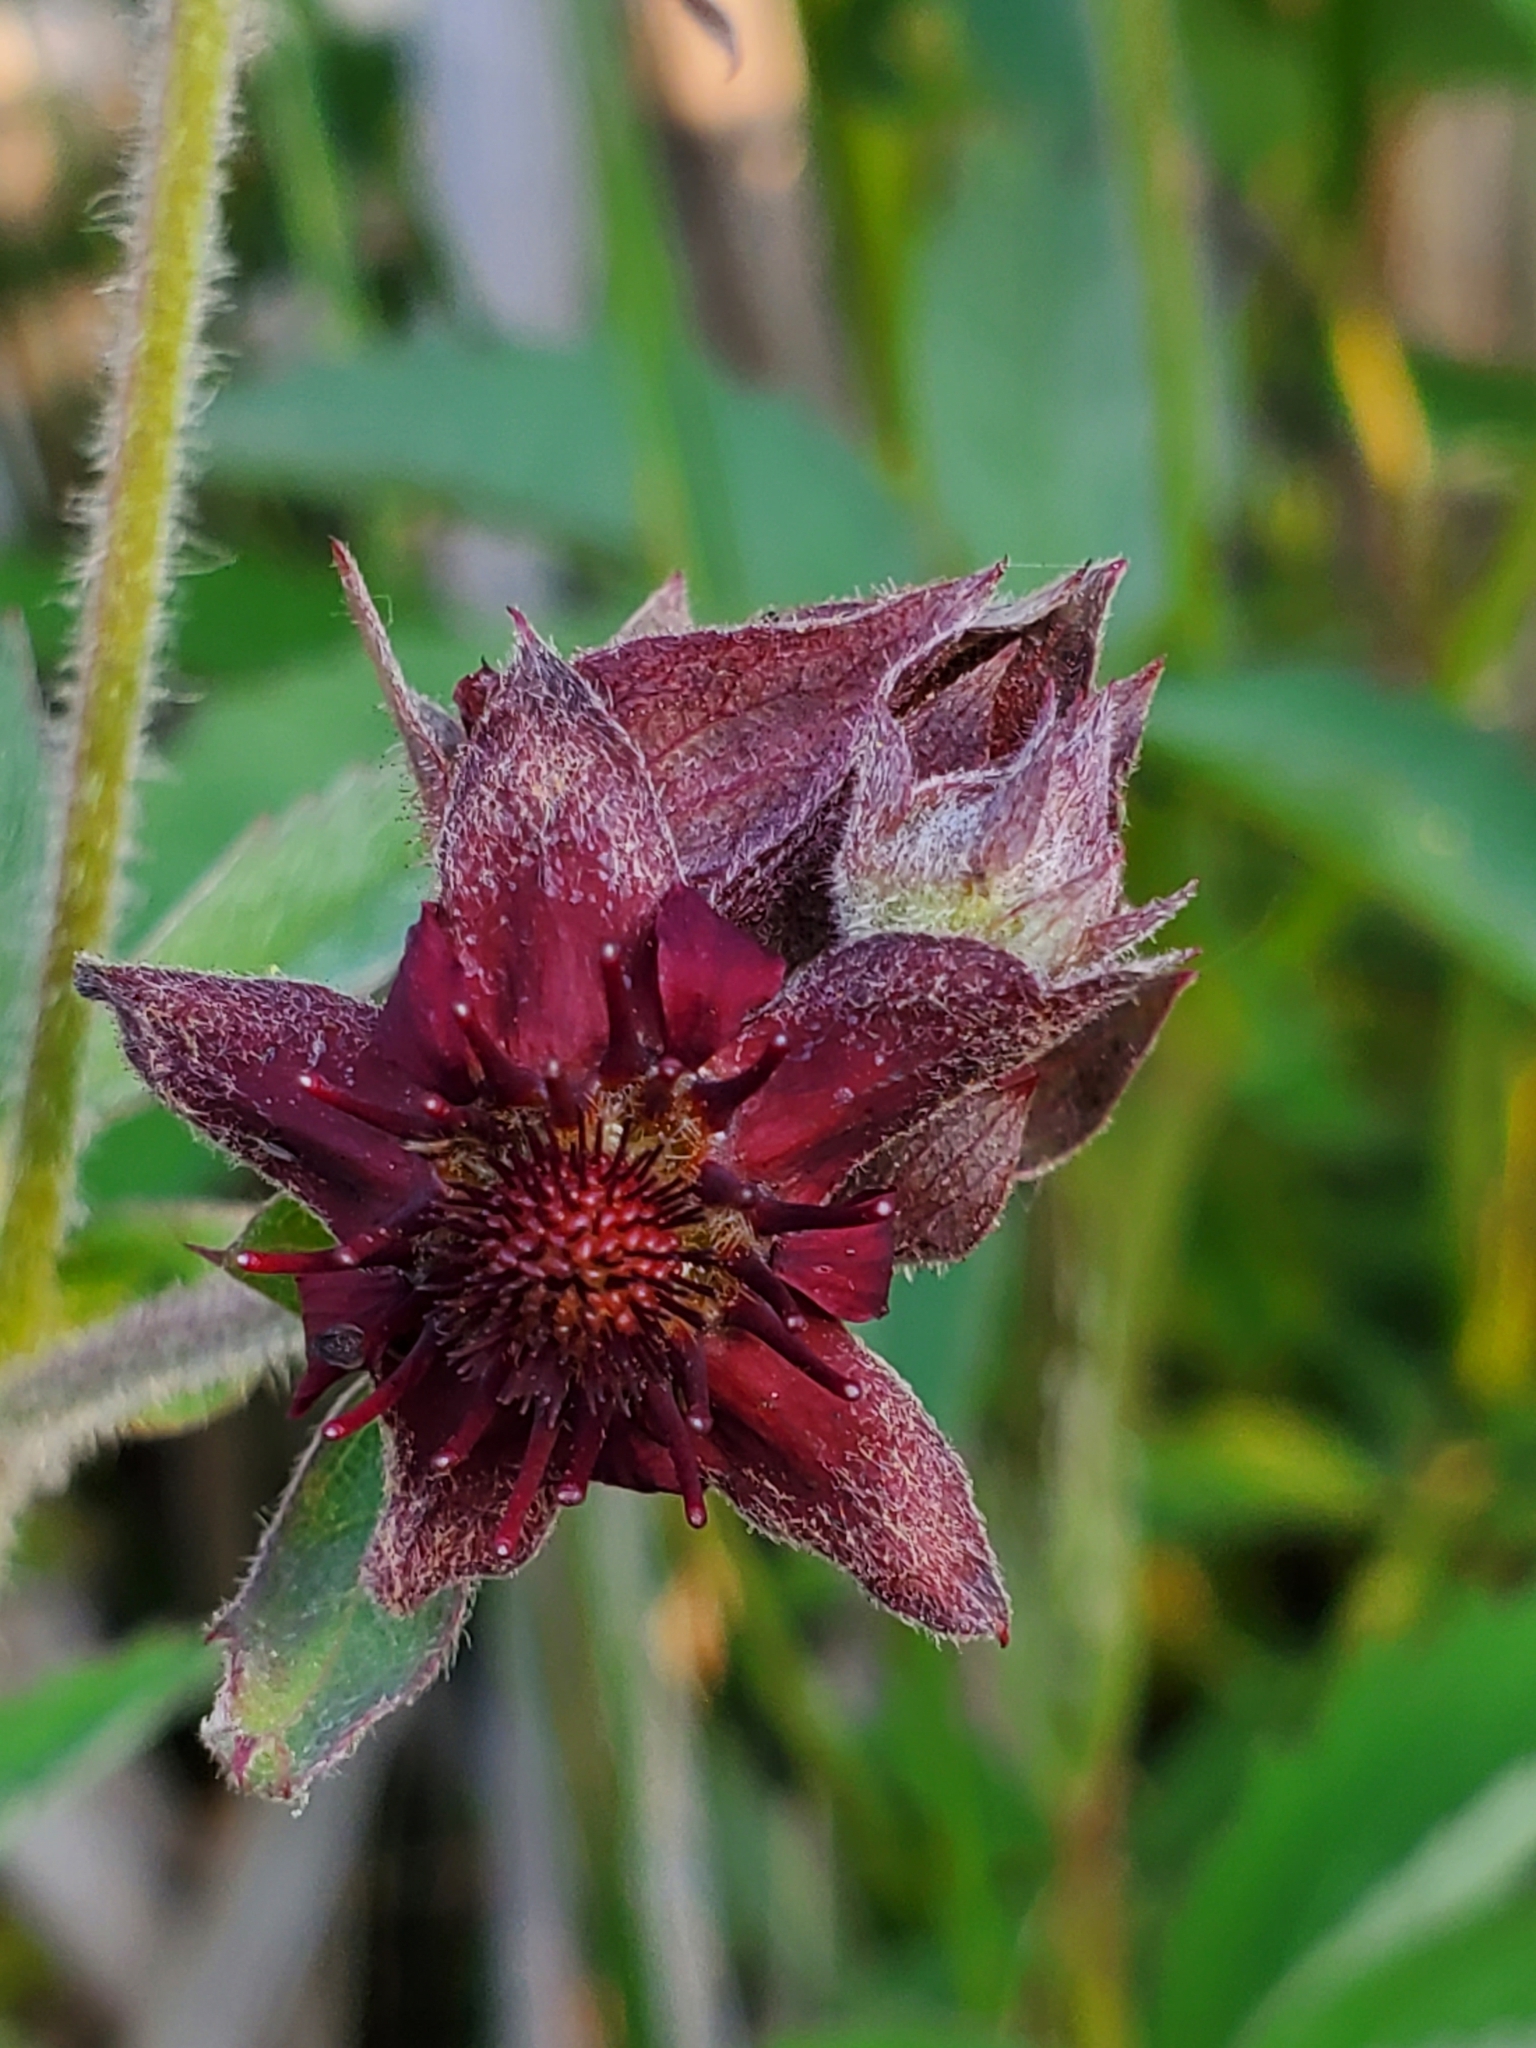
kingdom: Plantae
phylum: Tracheophyta
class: Magnoliopsida
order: Rosales
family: Rosaceae
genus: Comarum
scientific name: Comarum palustre
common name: Marsh cinquefoil
